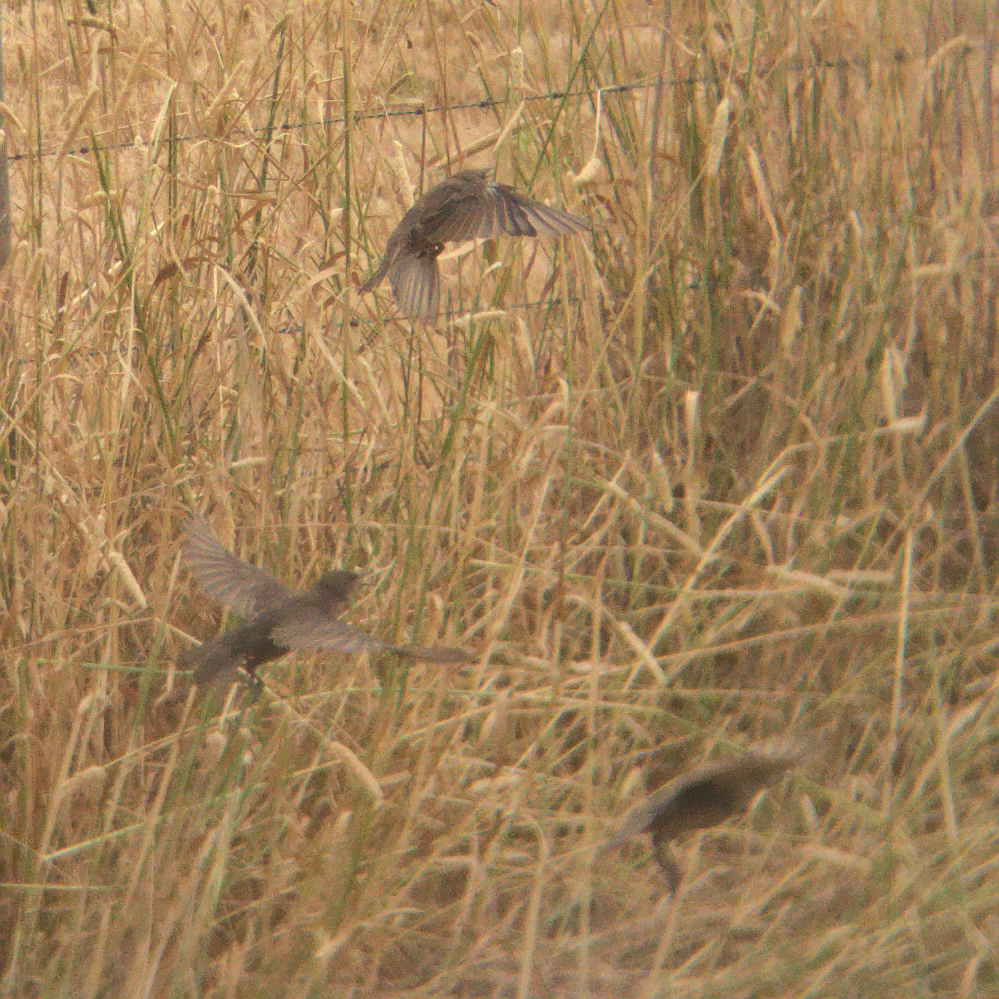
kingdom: Animalia
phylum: Chordata
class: Aves
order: Passeriformes
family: Sturnidae
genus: Sturnus
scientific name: Sturnus vulgaris
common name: Common starling
